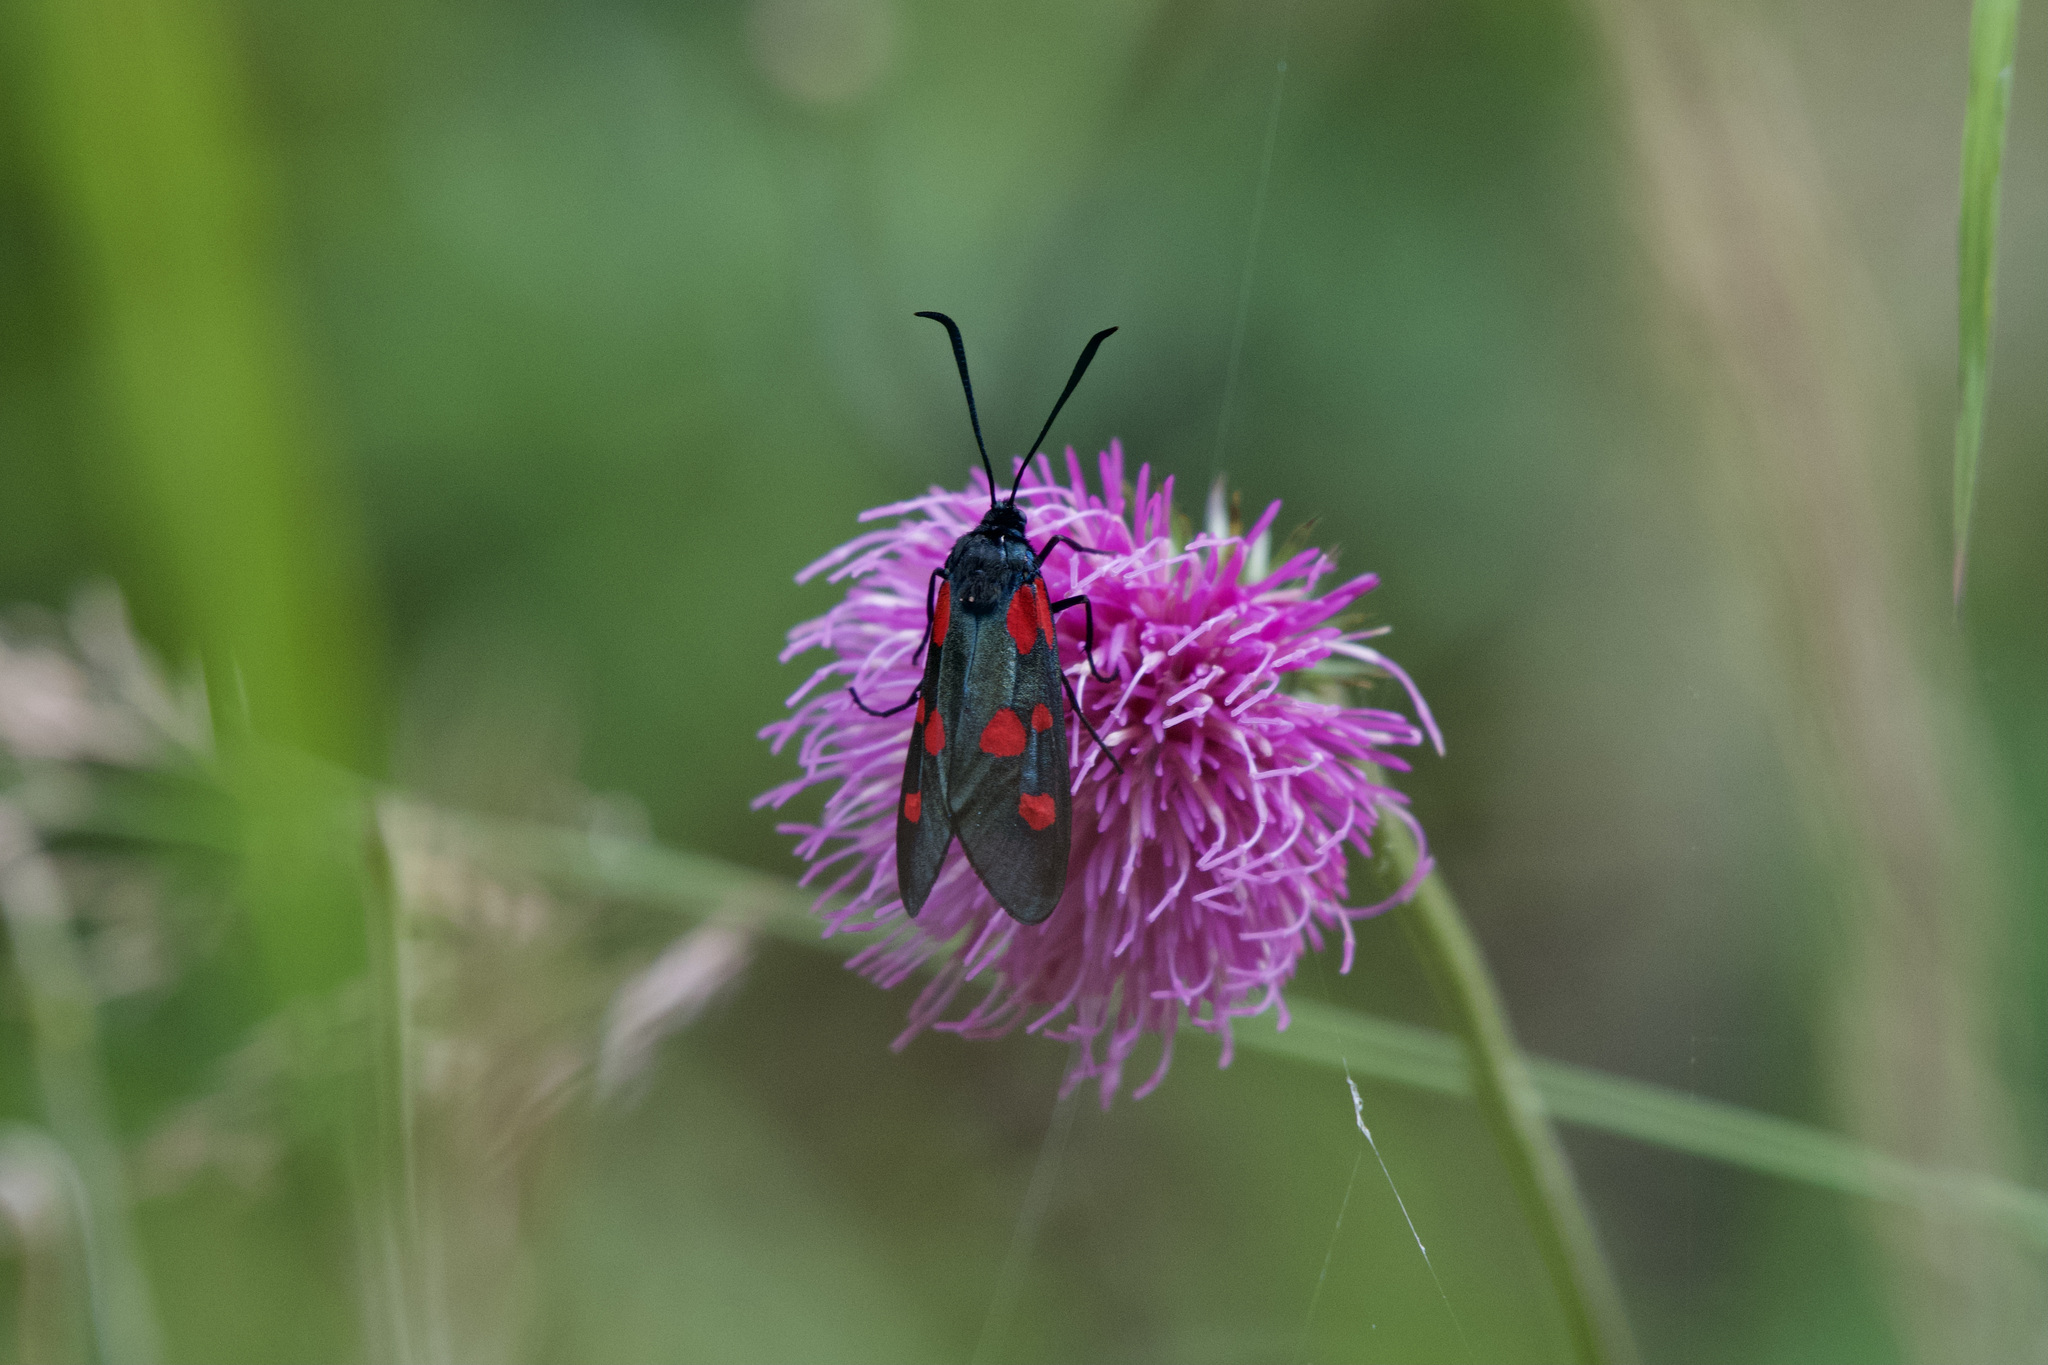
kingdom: Animalia
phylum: Arthropoda
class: Insecta
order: Lepidoptera
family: Zygaenidae
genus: Zygaena
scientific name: Zygaena lonicerae
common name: Narrow-bordered five-spot burnet
